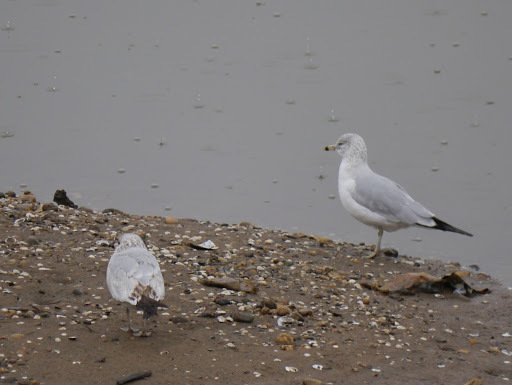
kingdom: Animalia
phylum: Chordata
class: Aves
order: Charadriiformes
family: Laridae
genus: Larus
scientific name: Larus delawarensis
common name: Ring-billed gull
